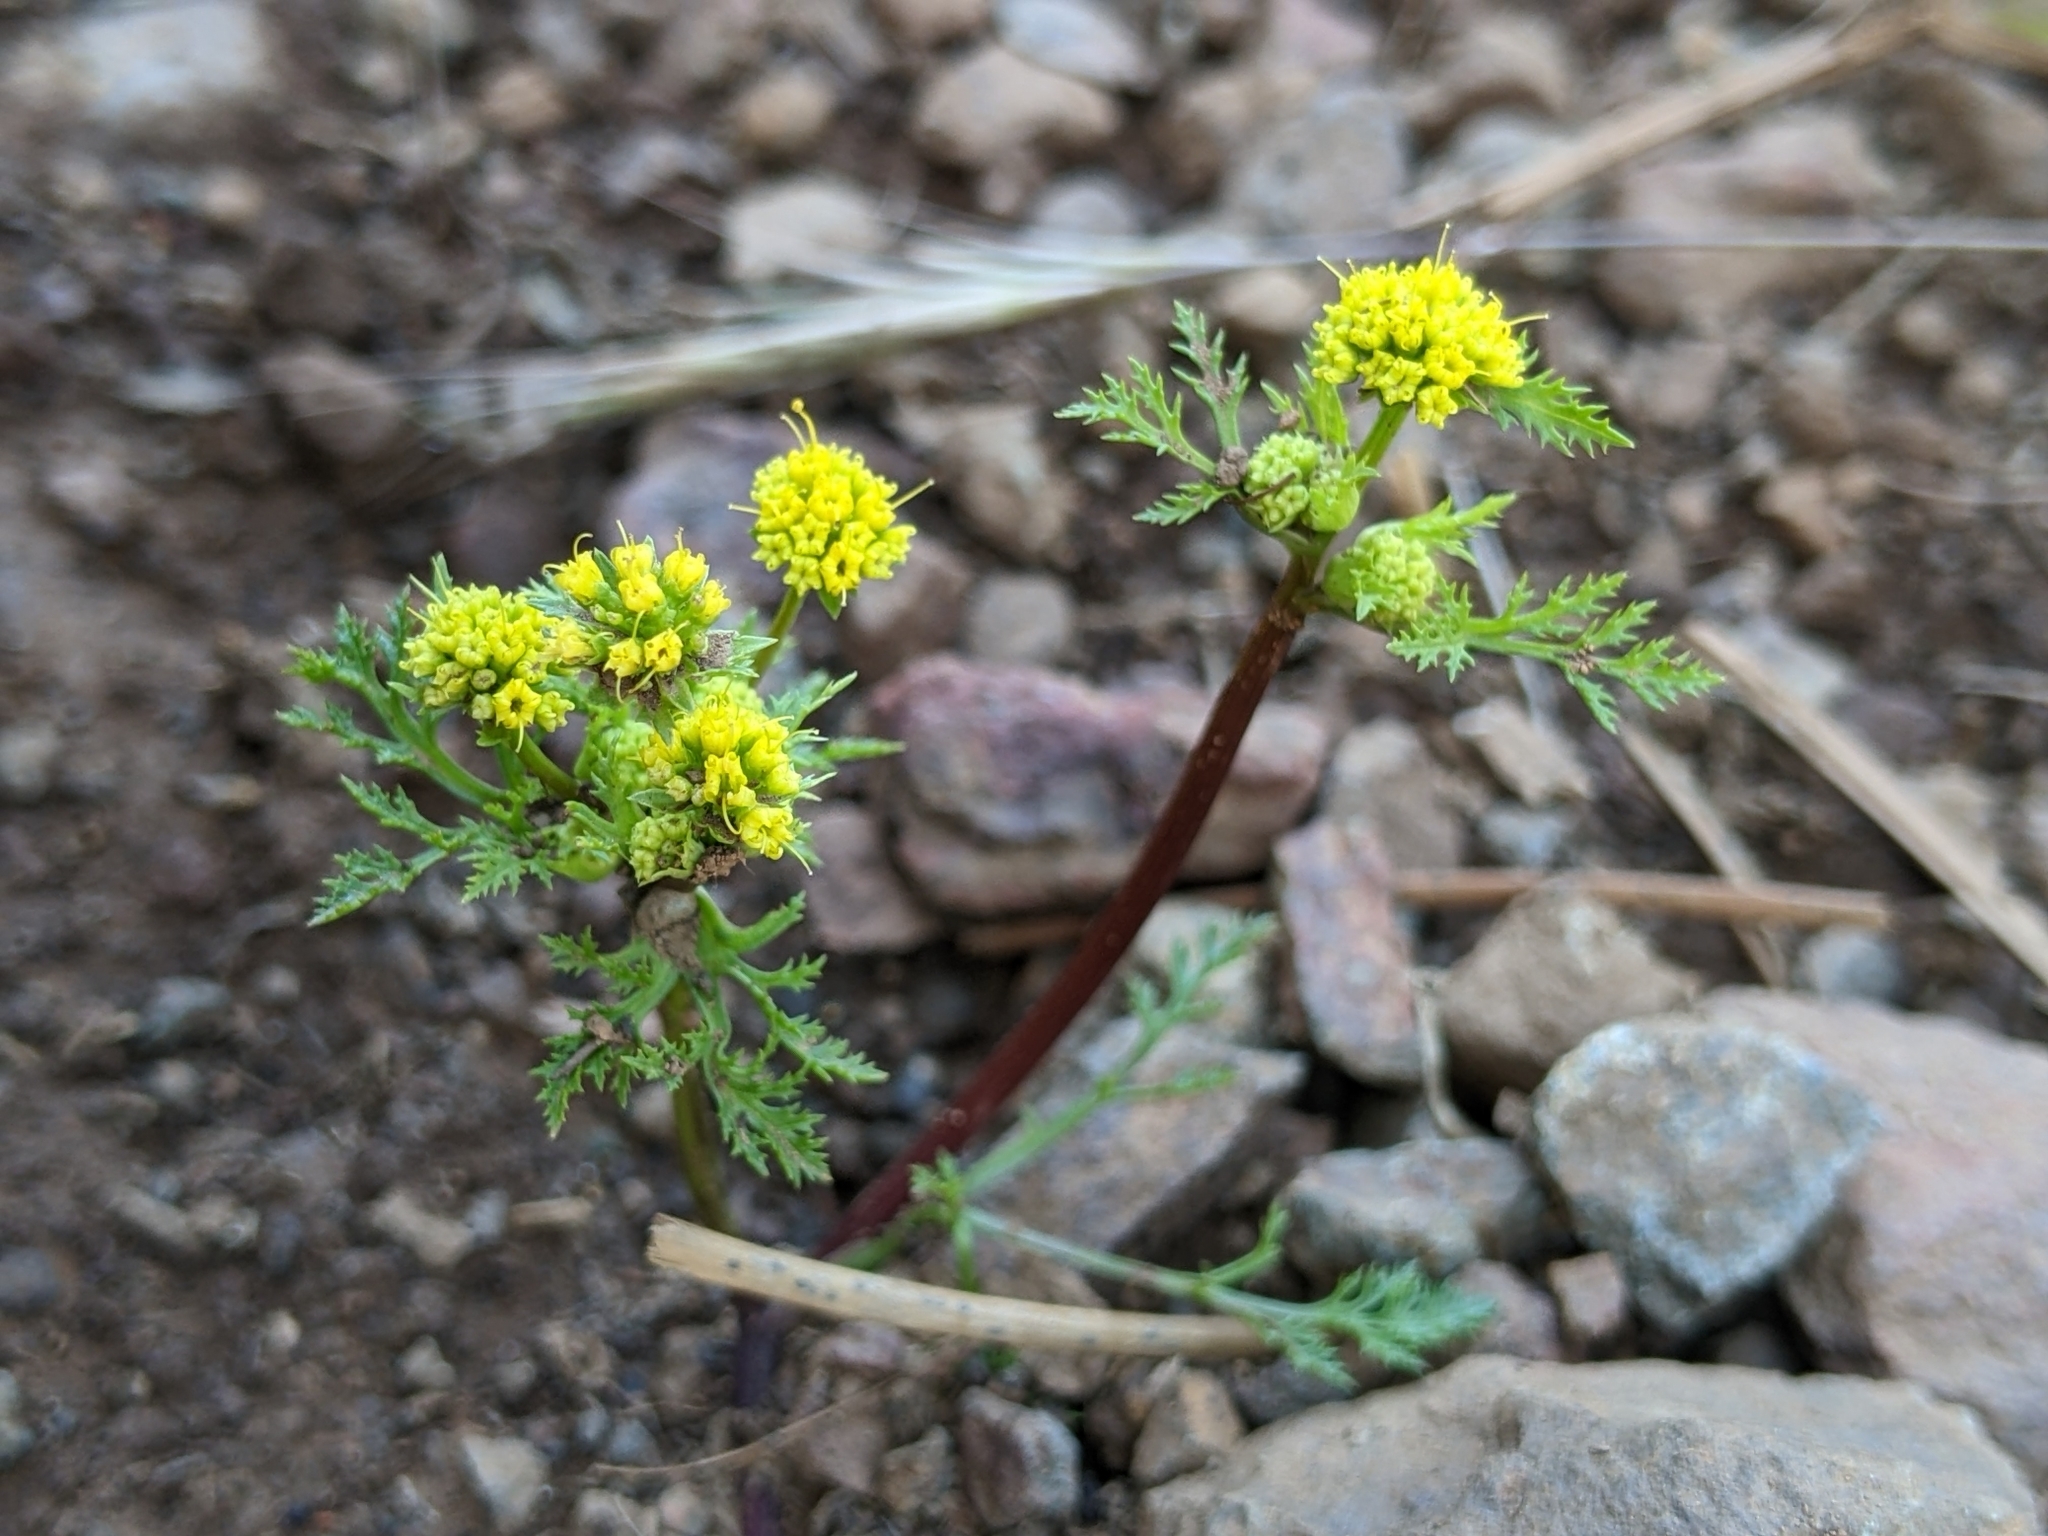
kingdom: Plantae
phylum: Tracheophyta
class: Magnoliopsida
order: Apiales
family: Apiaceae
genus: Sanicula
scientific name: Sanicula tuberosa
